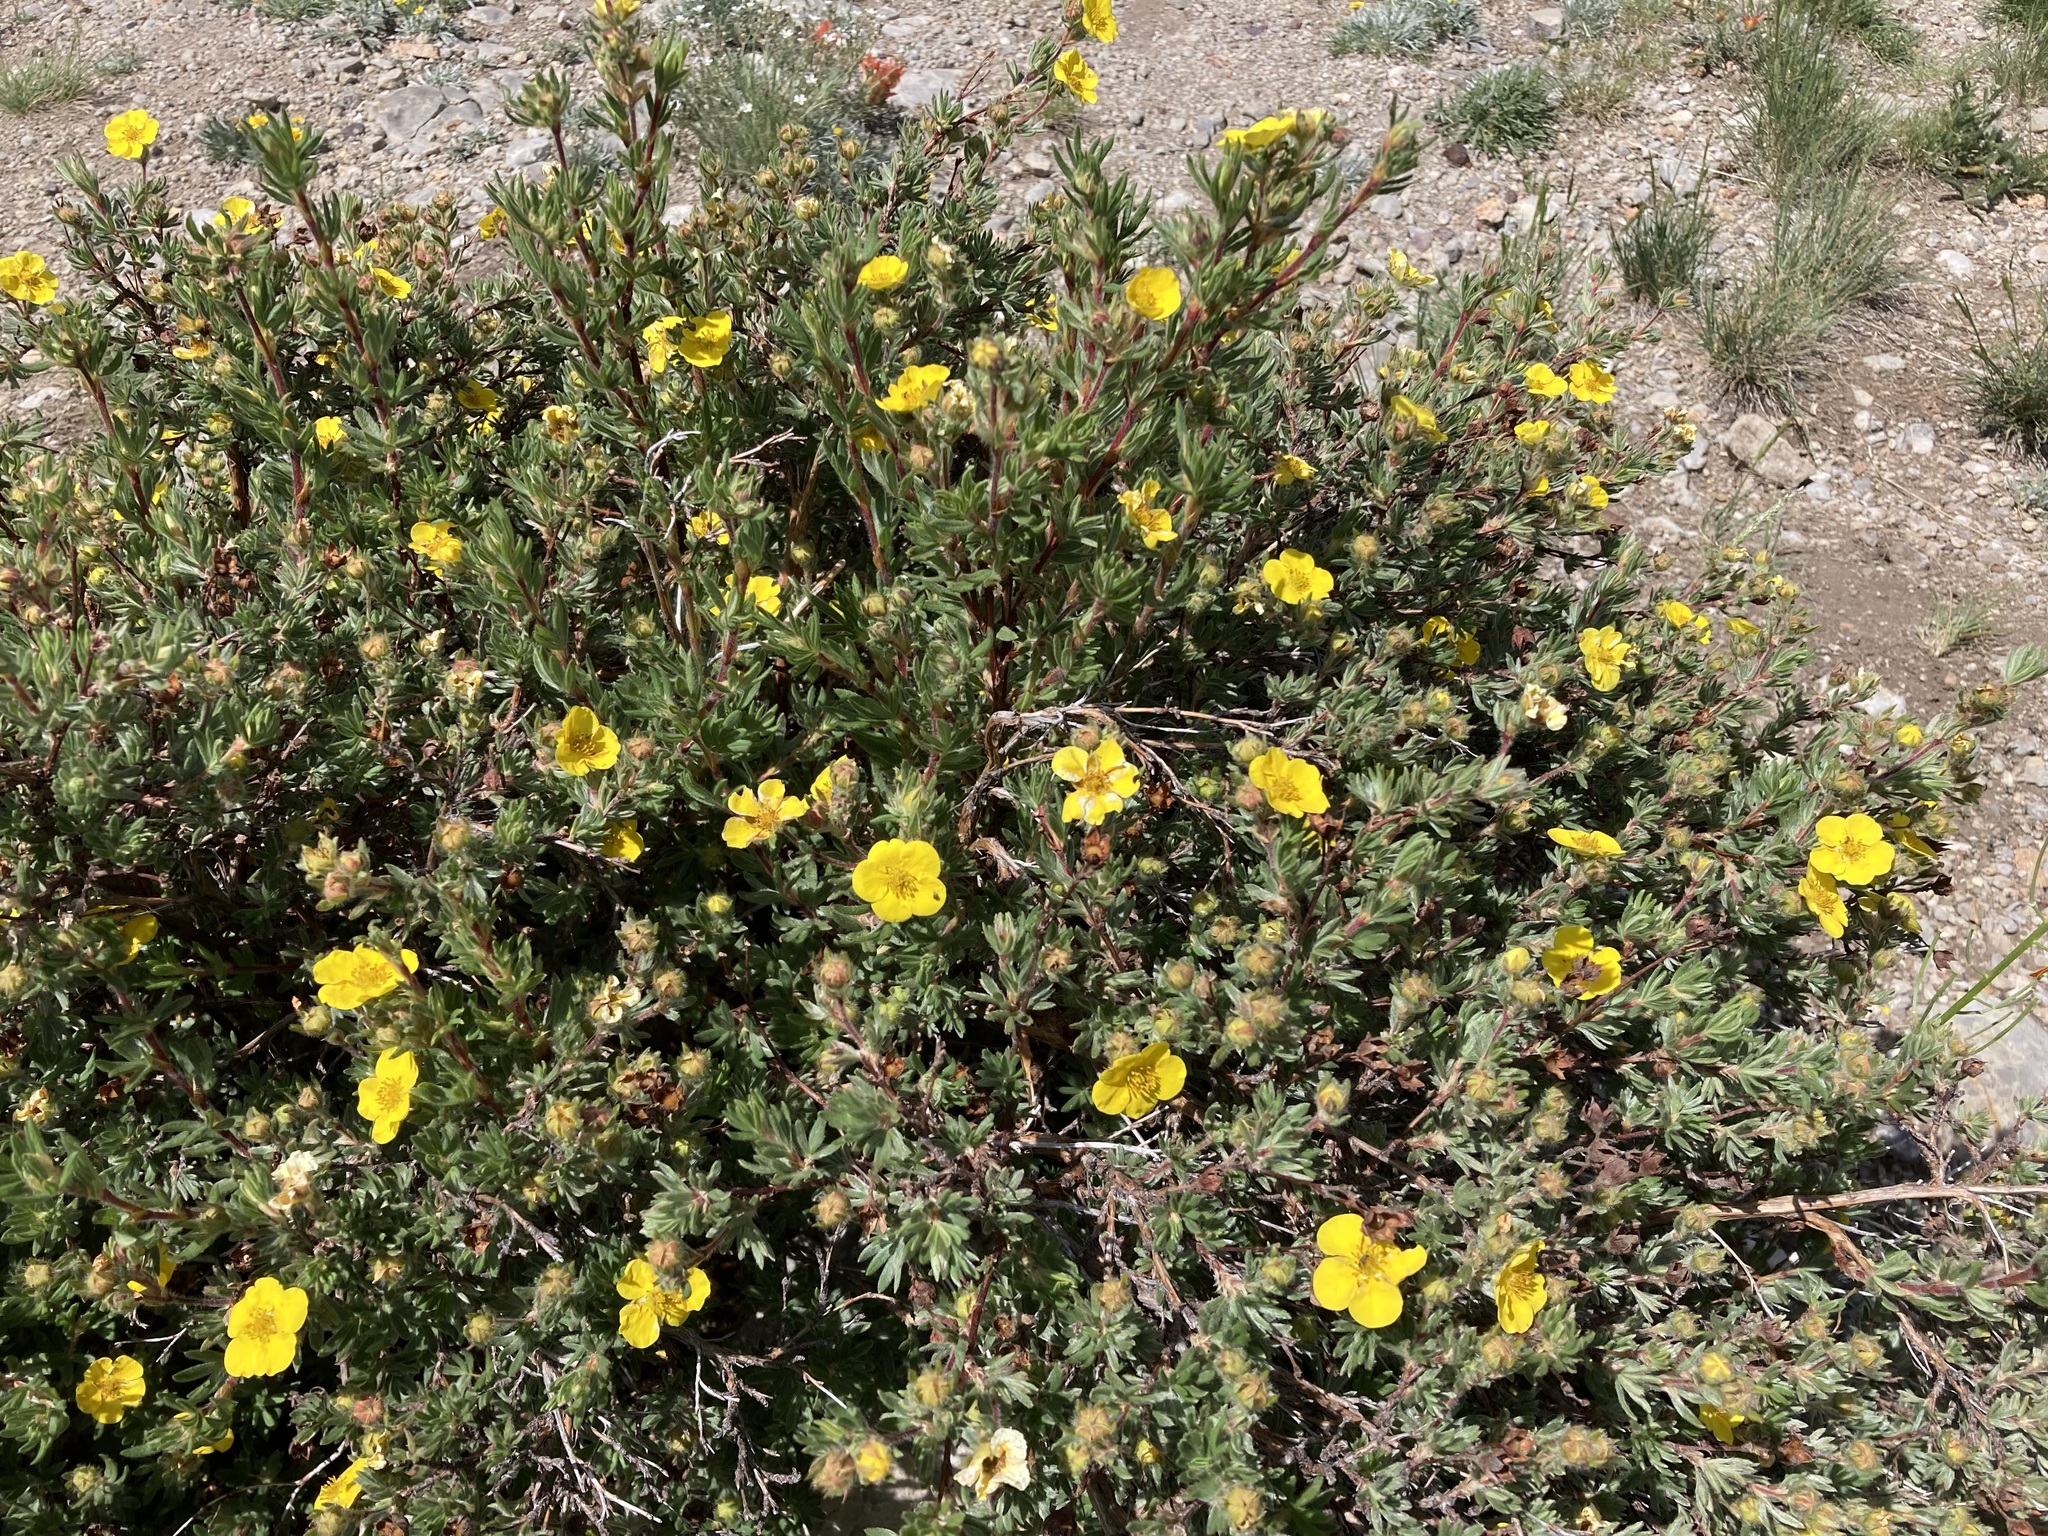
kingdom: Plantae
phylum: Tracheophyta
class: Magnoliopsida
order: Rosales
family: Rosaceae
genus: Dasiphora
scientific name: Dasiphora fruticosa
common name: Shrubby cinquefoil
